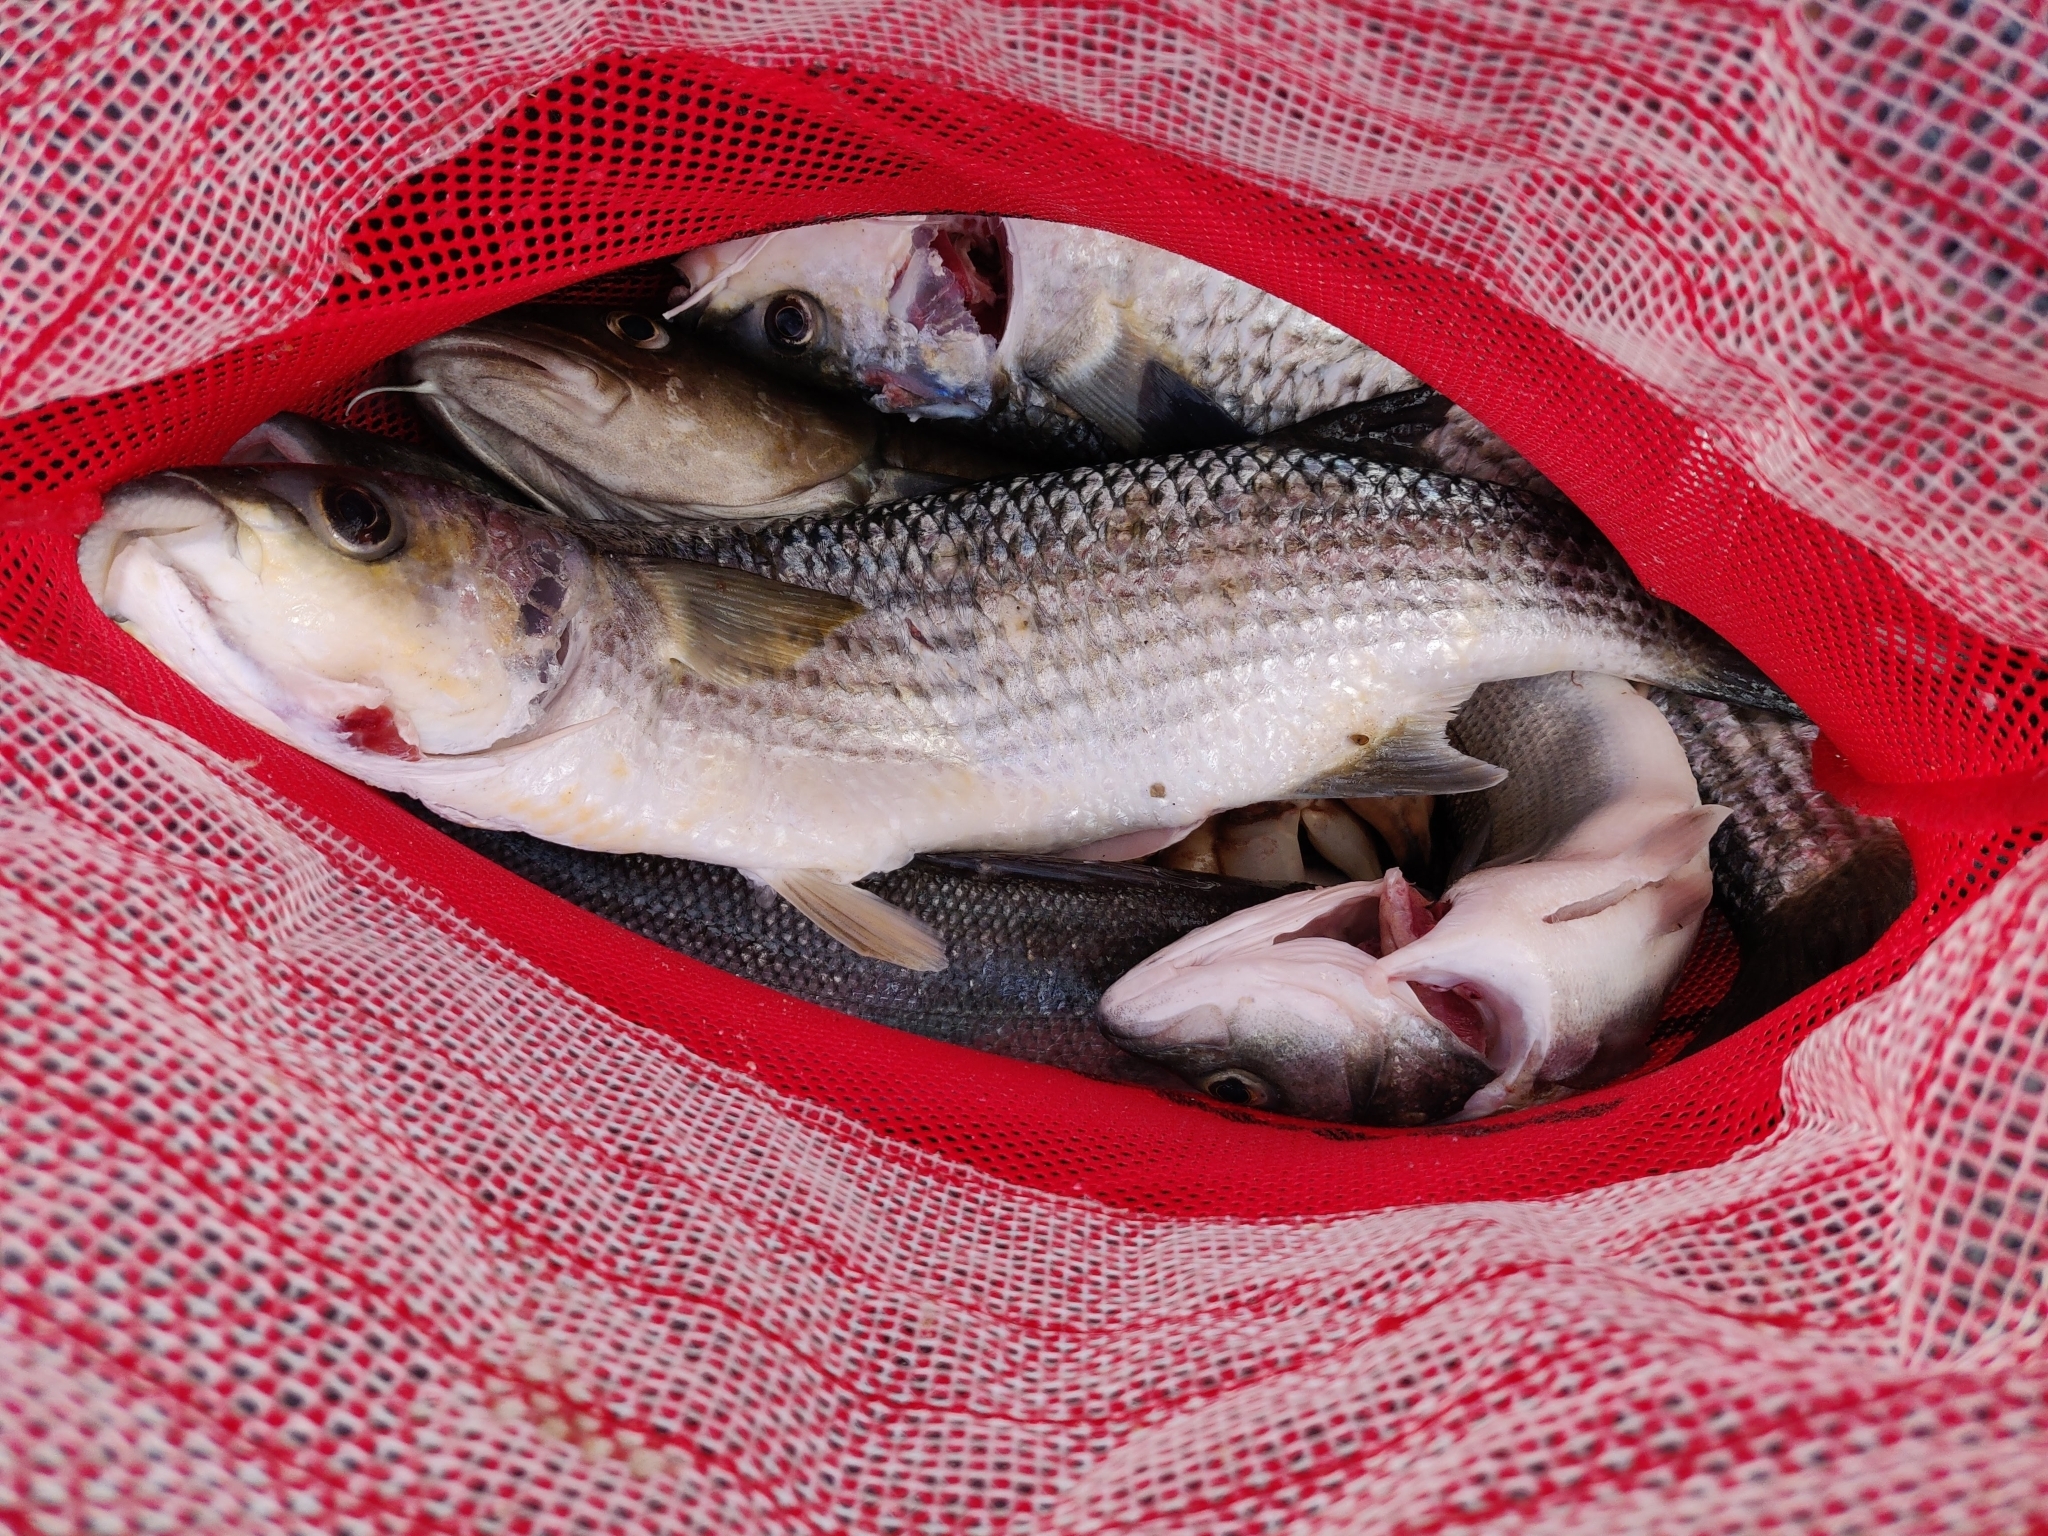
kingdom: Animalia
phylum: Chordata
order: Mugiliformes
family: Mugilidae
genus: Chelon
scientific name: Chelon labrosus
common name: Thick-lipped mullet
